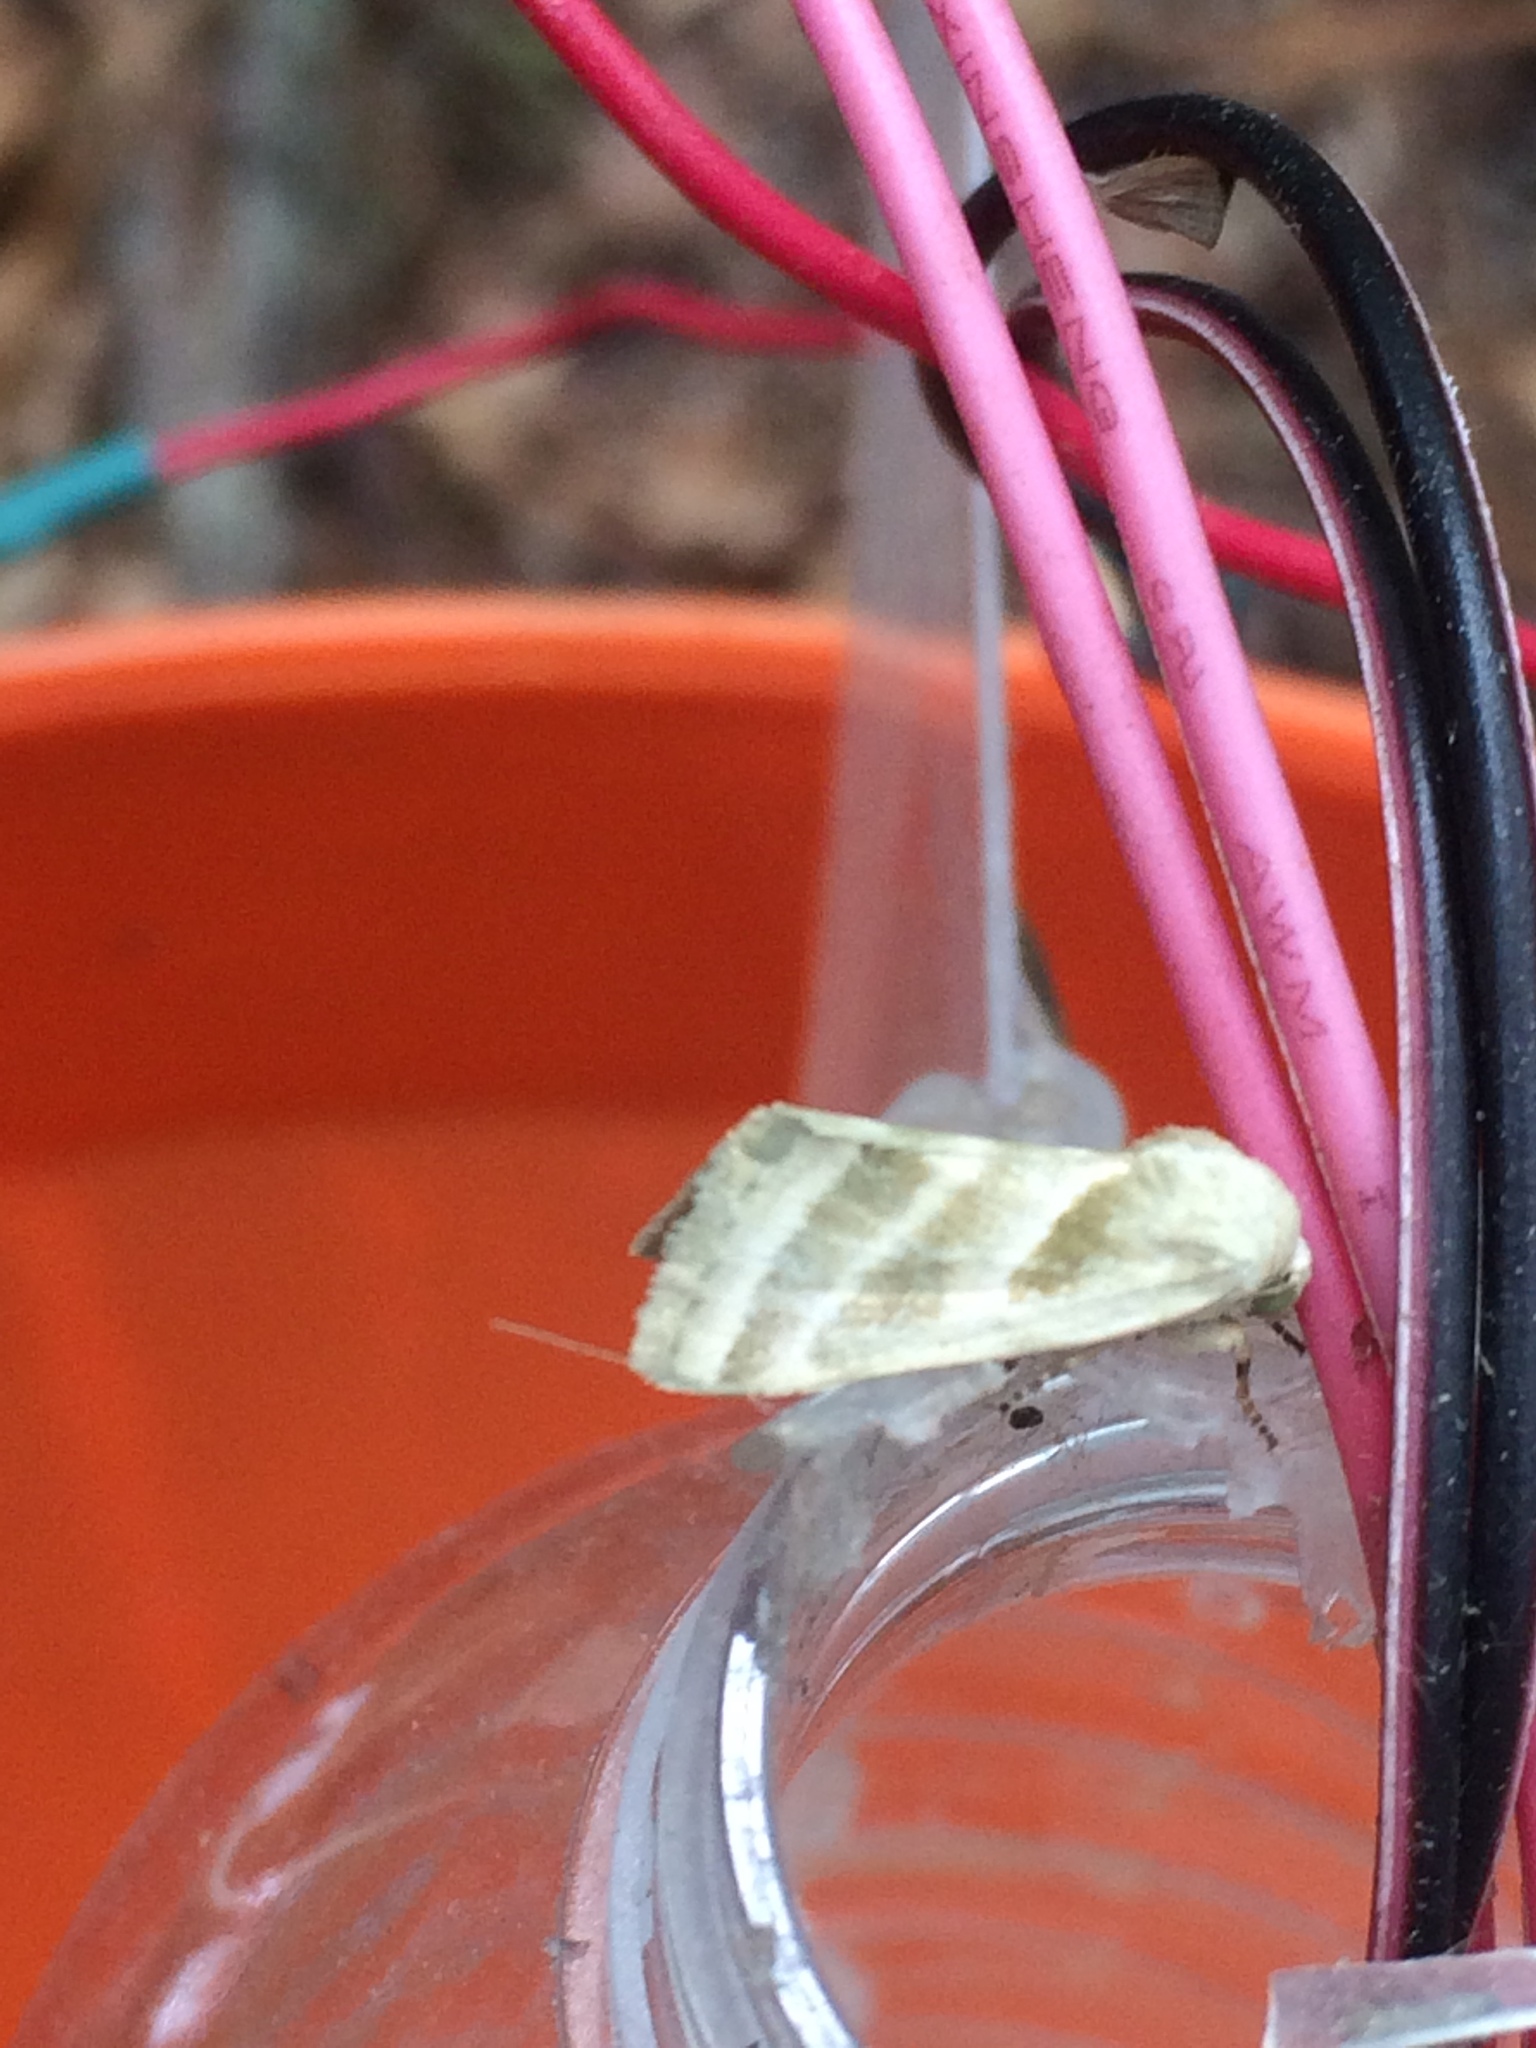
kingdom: Animalia
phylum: Arthropoda
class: Insecta
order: Lepidoptera
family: Noctuidae
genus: Schinia
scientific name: Schinia trifascia
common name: Three-lined flower moth
